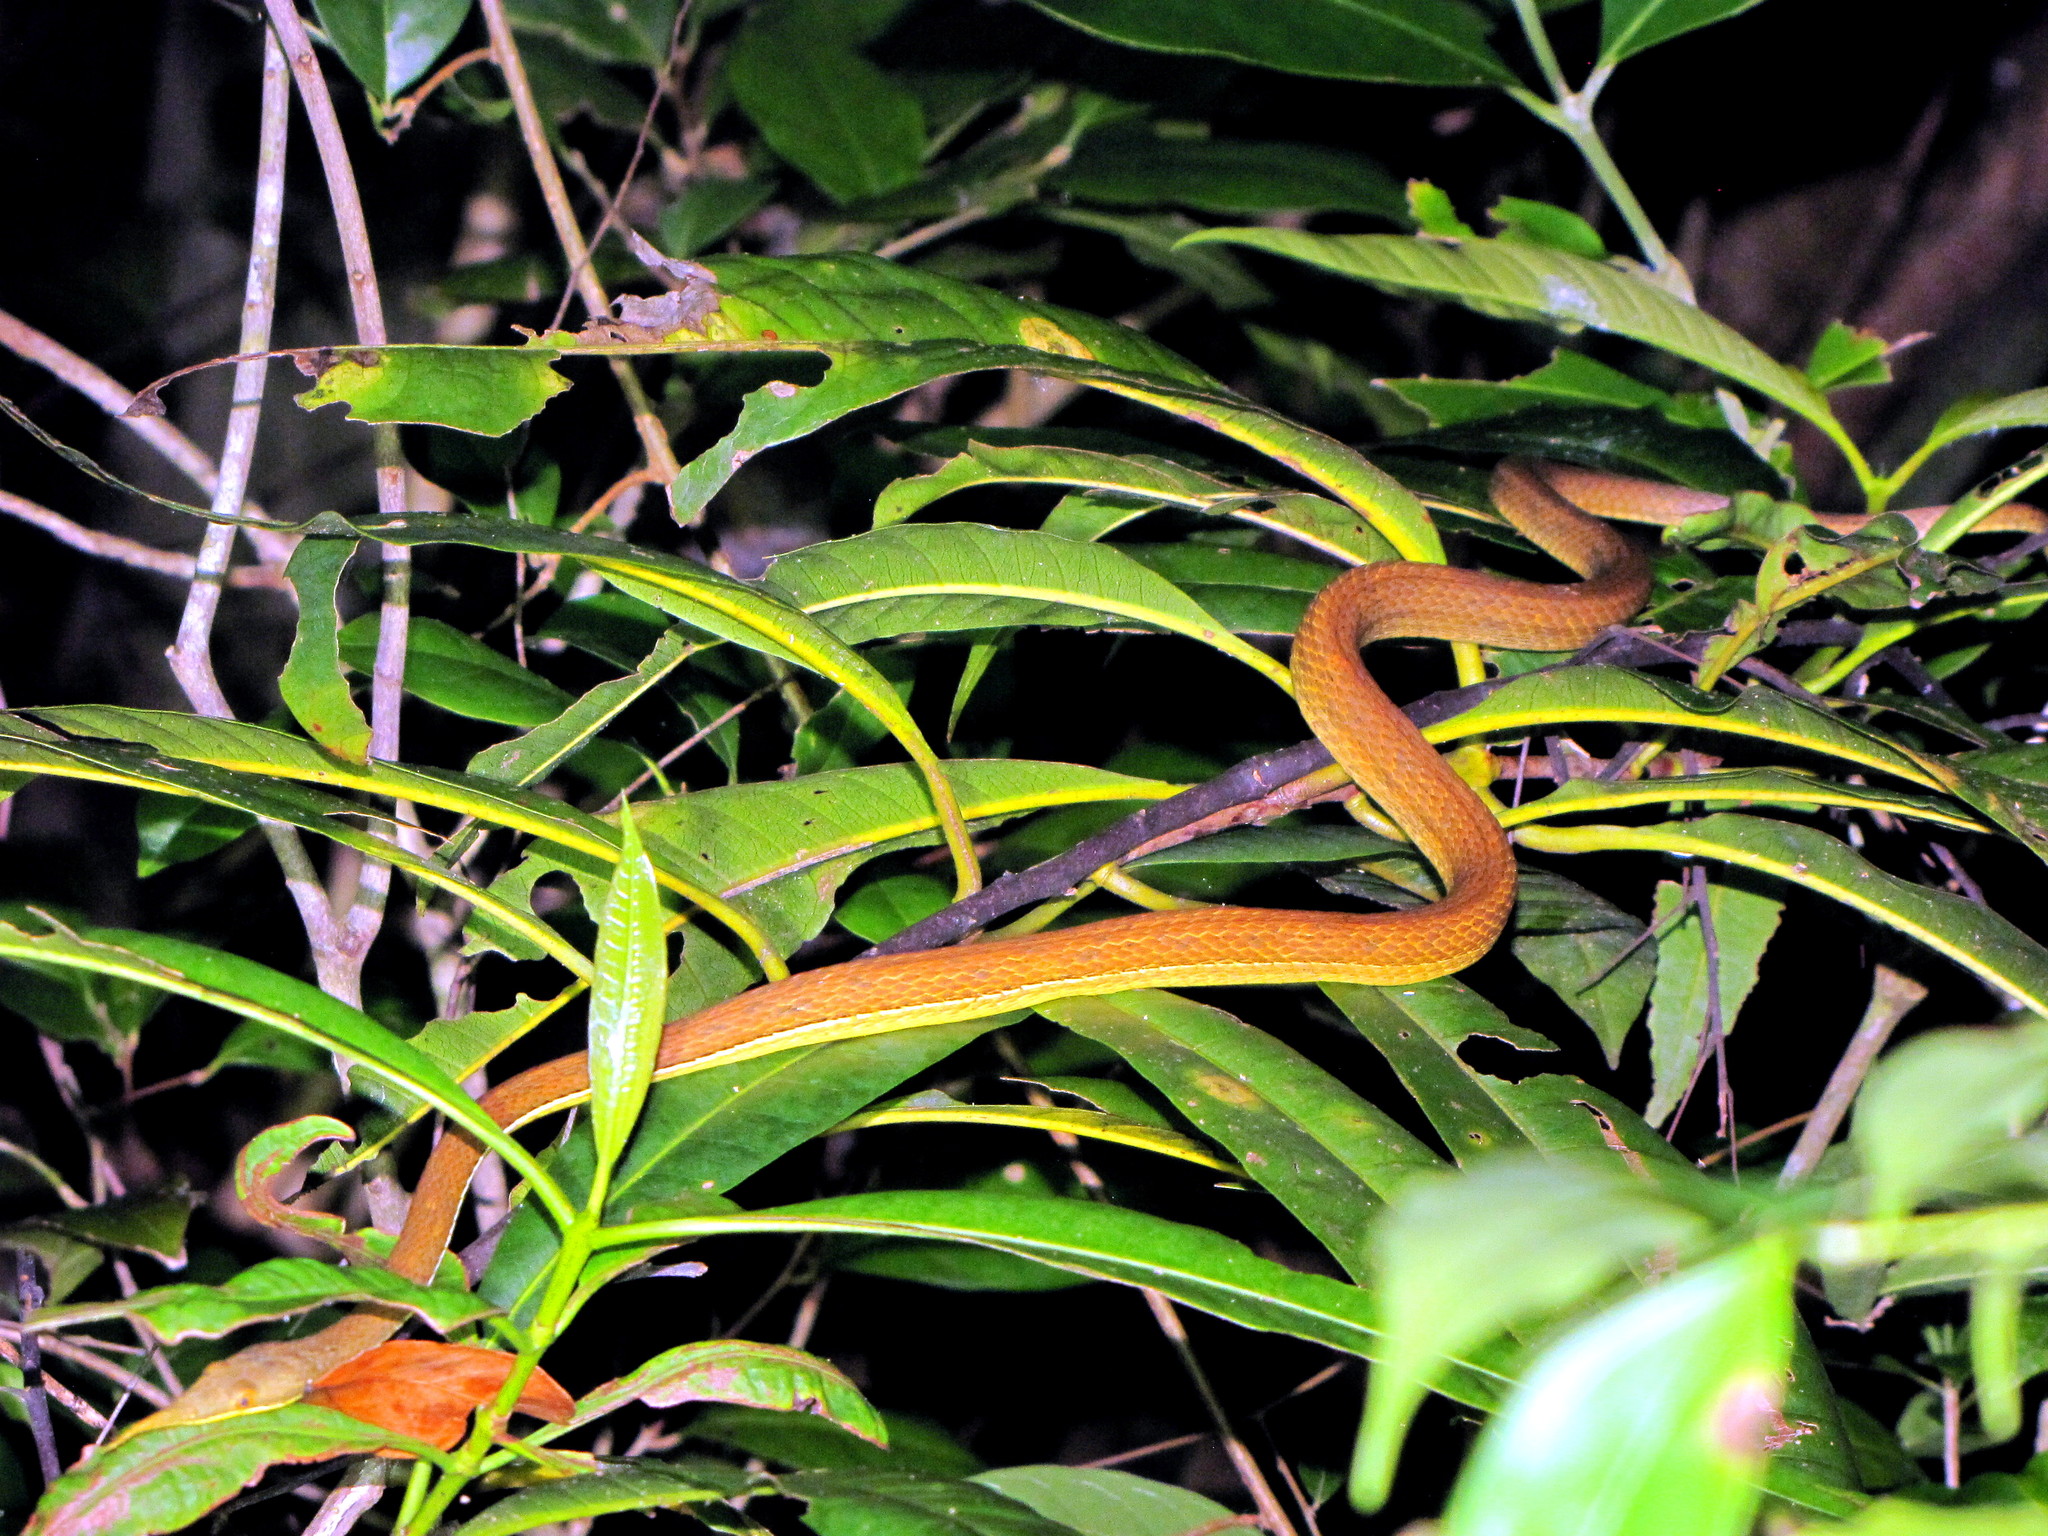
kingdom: Animalia
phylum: Chordata
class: Squamata
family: Pseudoxyrhophiidae
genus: Langaha
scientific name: Langaha madagascariensis
